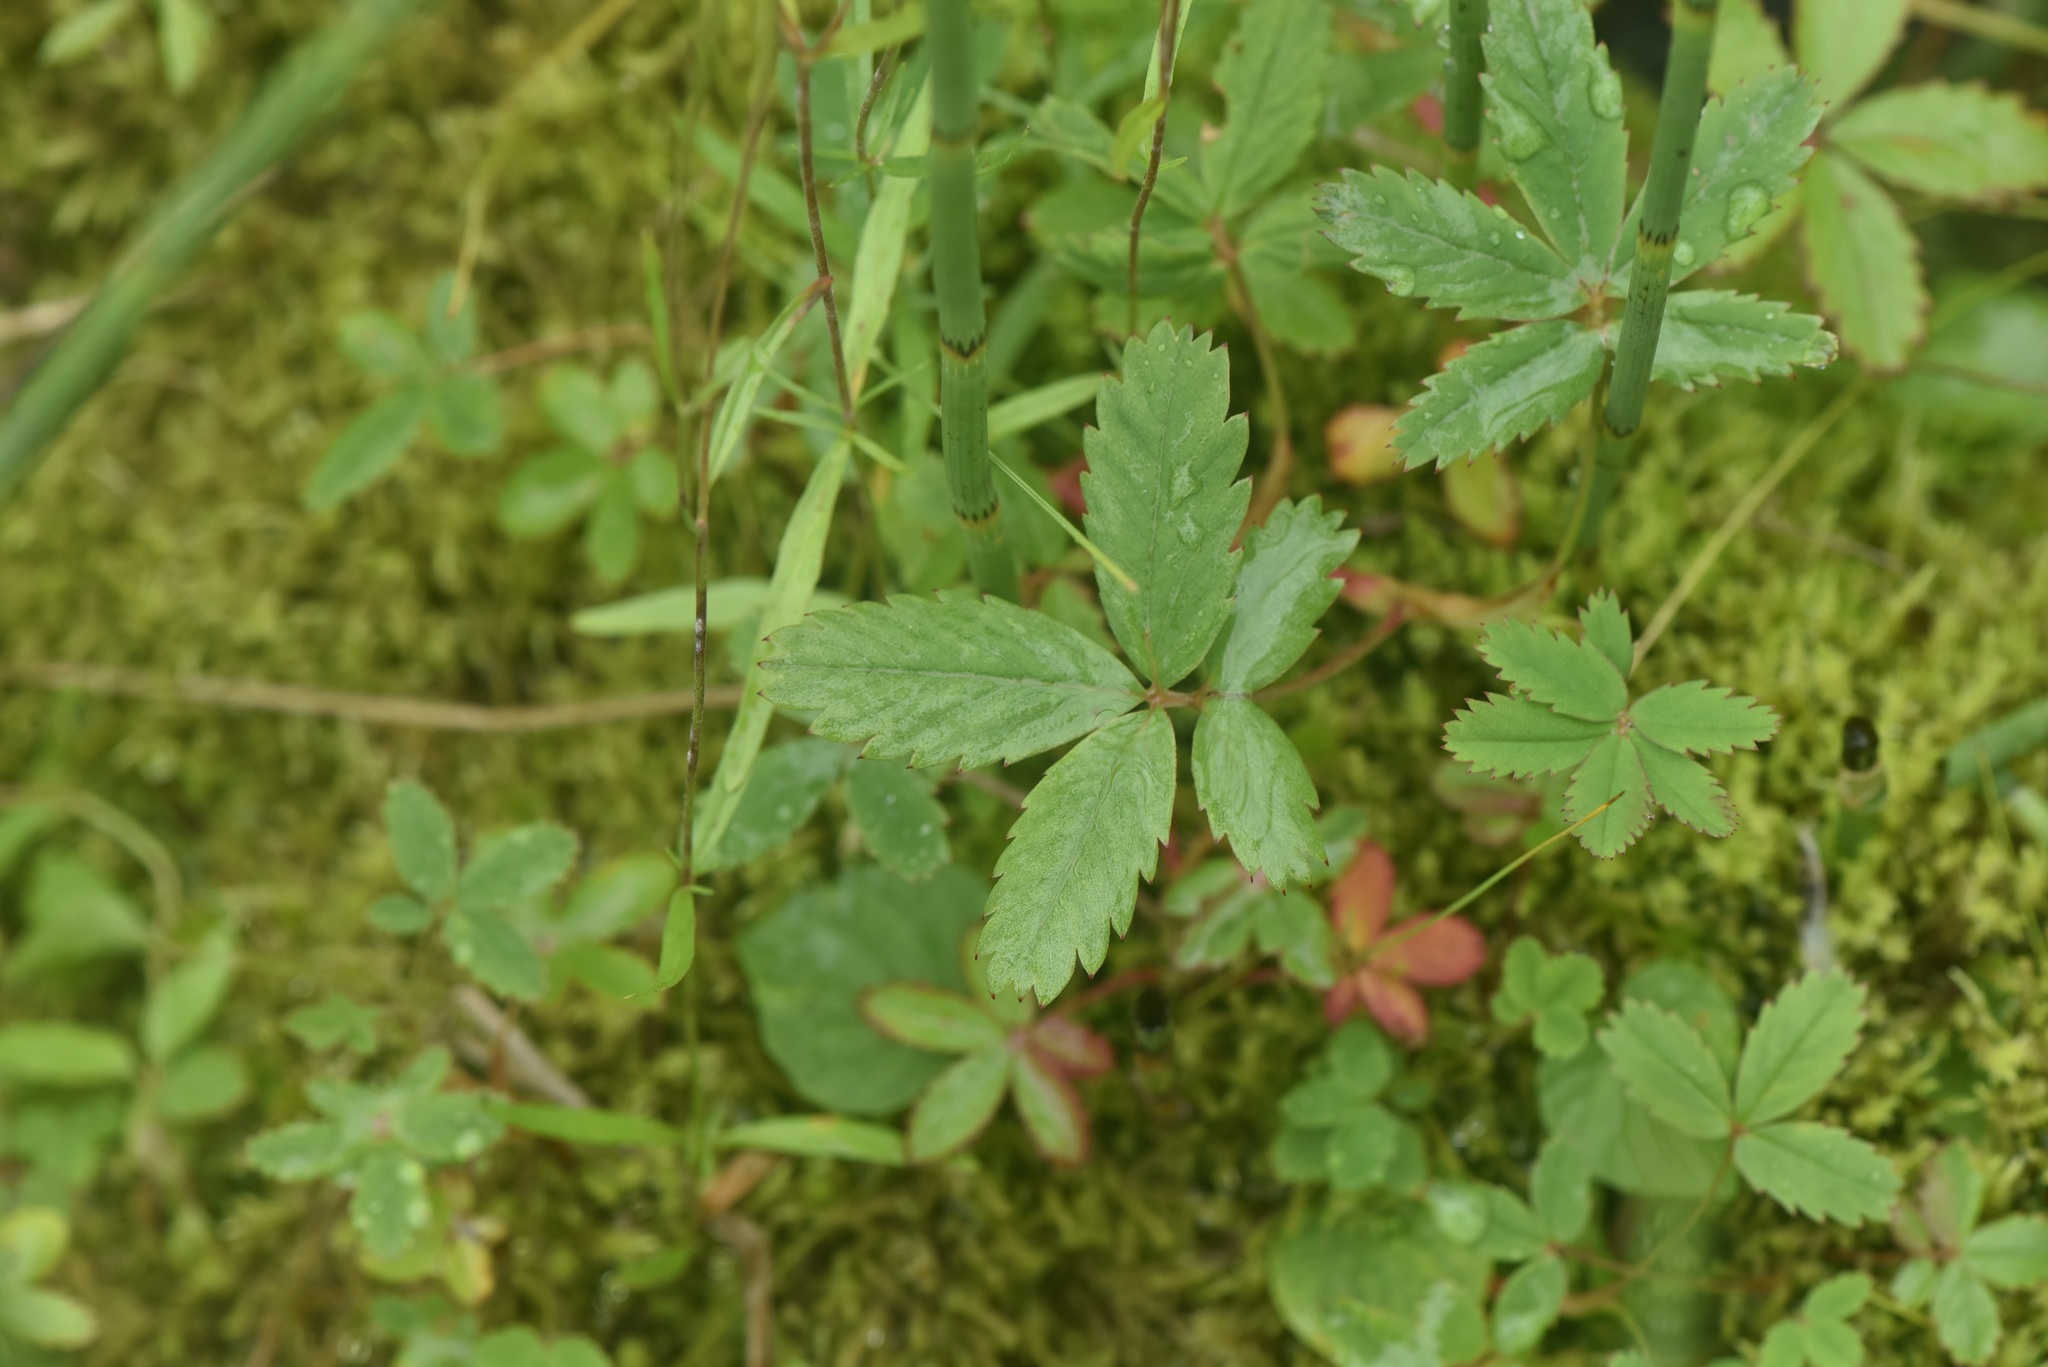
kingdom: Plantae
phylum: Tracheophyta
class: Magnoliopsida
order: Rosales
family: Rosaceae
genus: Comarum
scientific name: Comarum palustre
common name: Marsh cinquefoil
